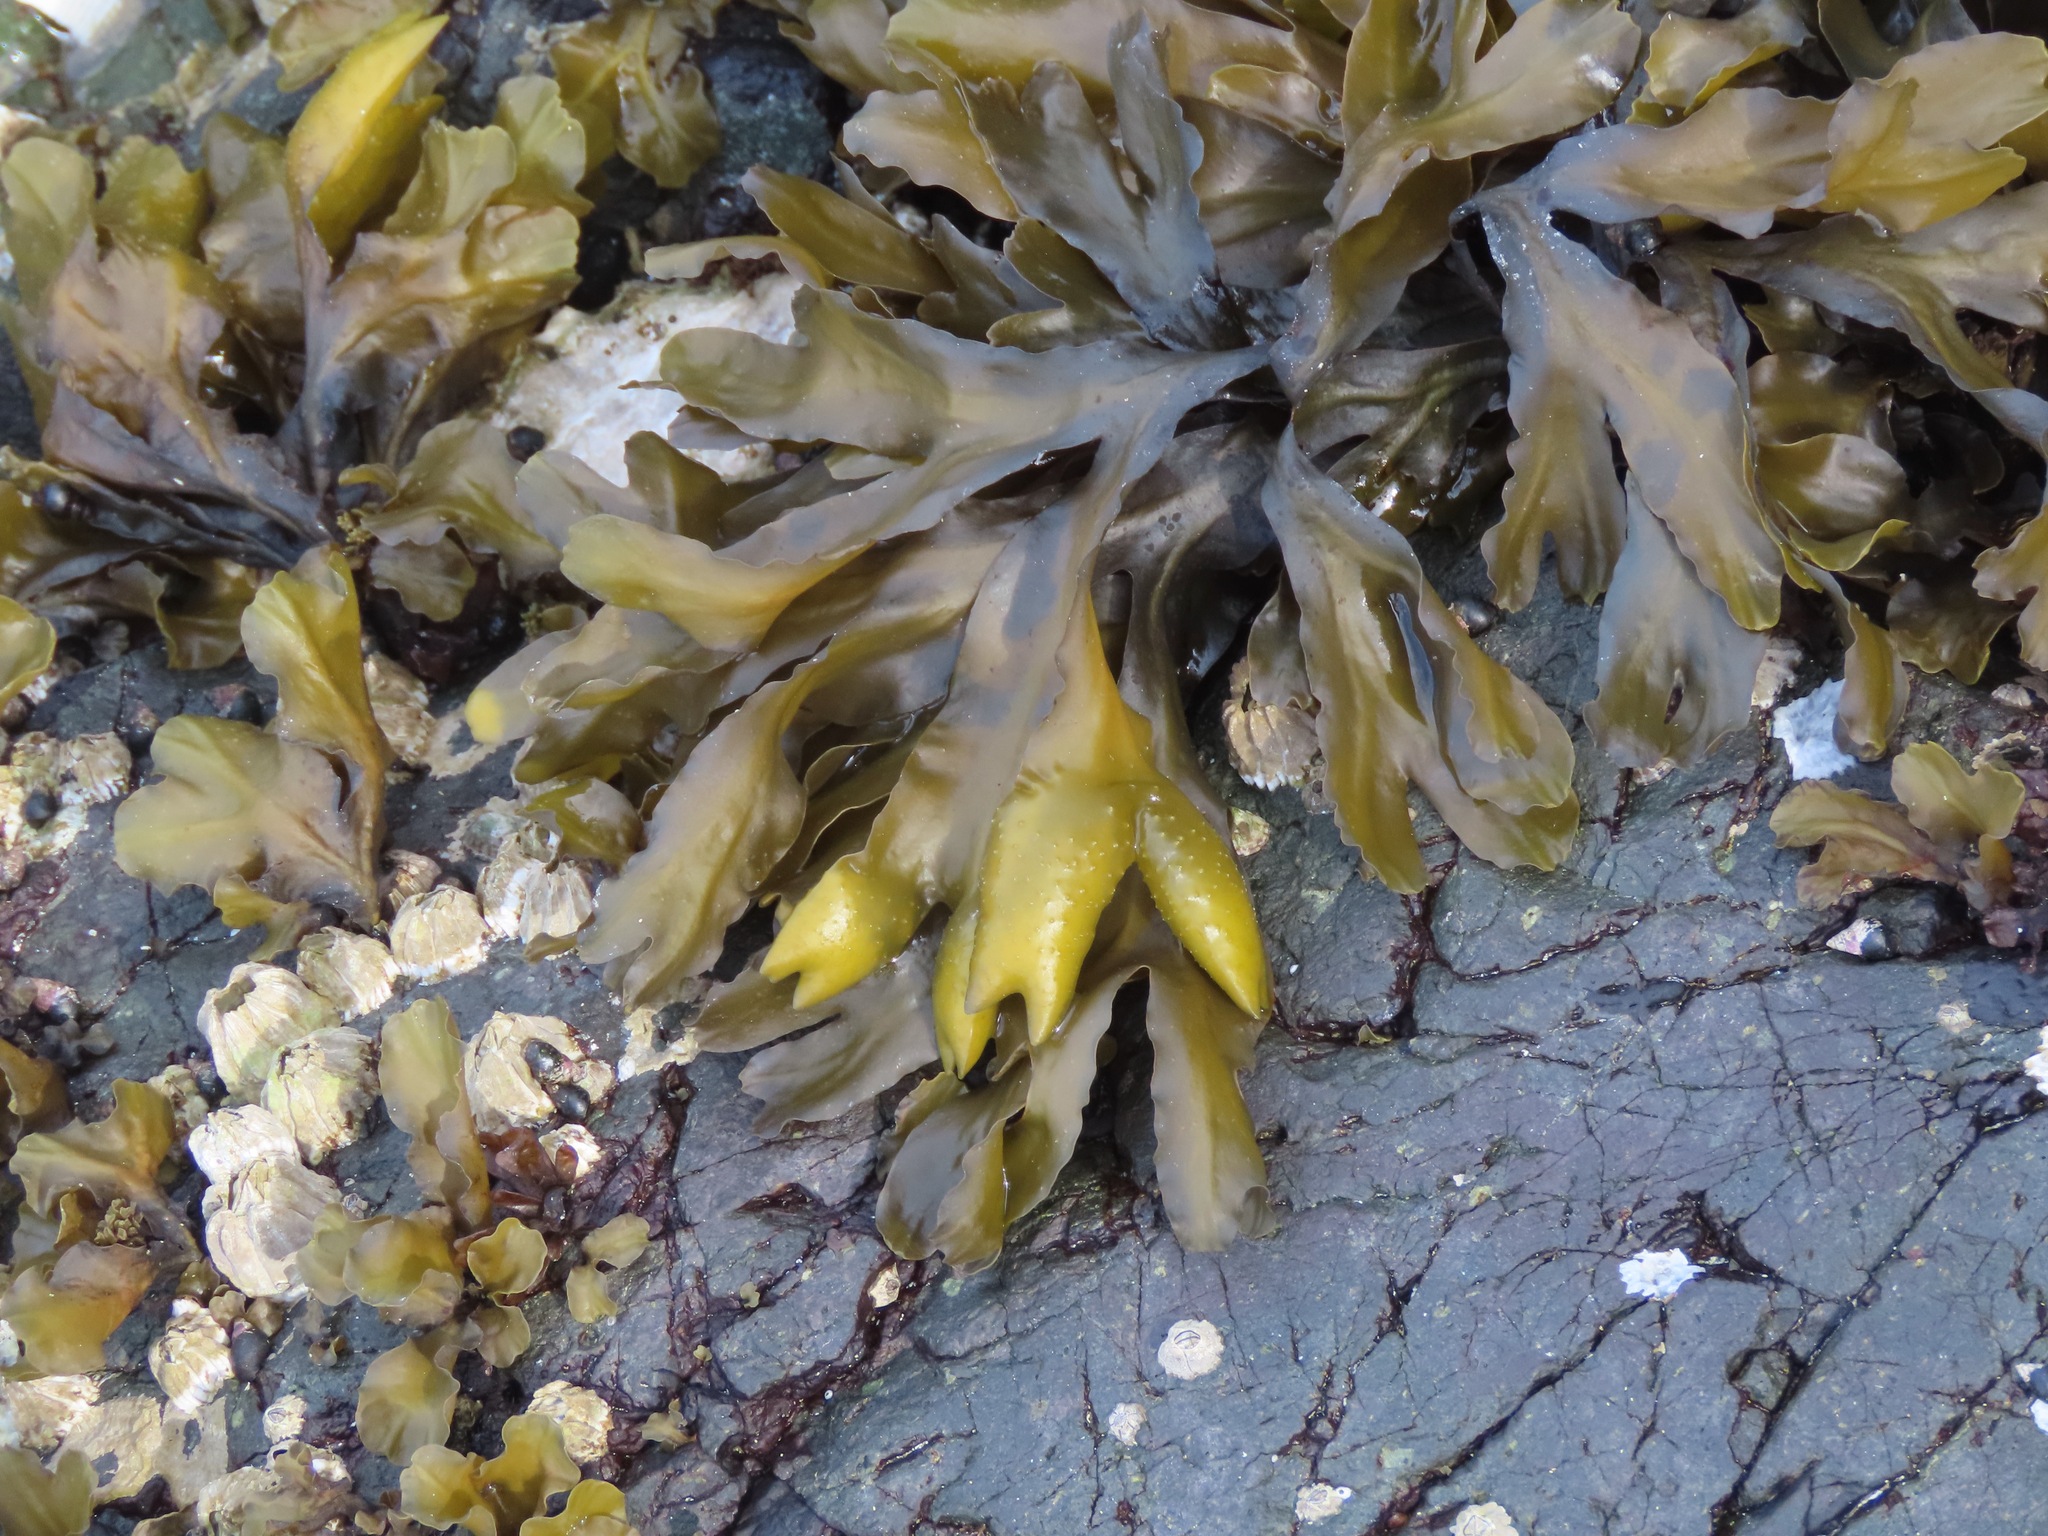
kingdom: Chromista
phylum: Ochrophyta
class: Phaeophyceae
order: Fucales
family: Fucaceae
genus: Fucus
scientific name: Fucus distichus
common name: Rockweed
